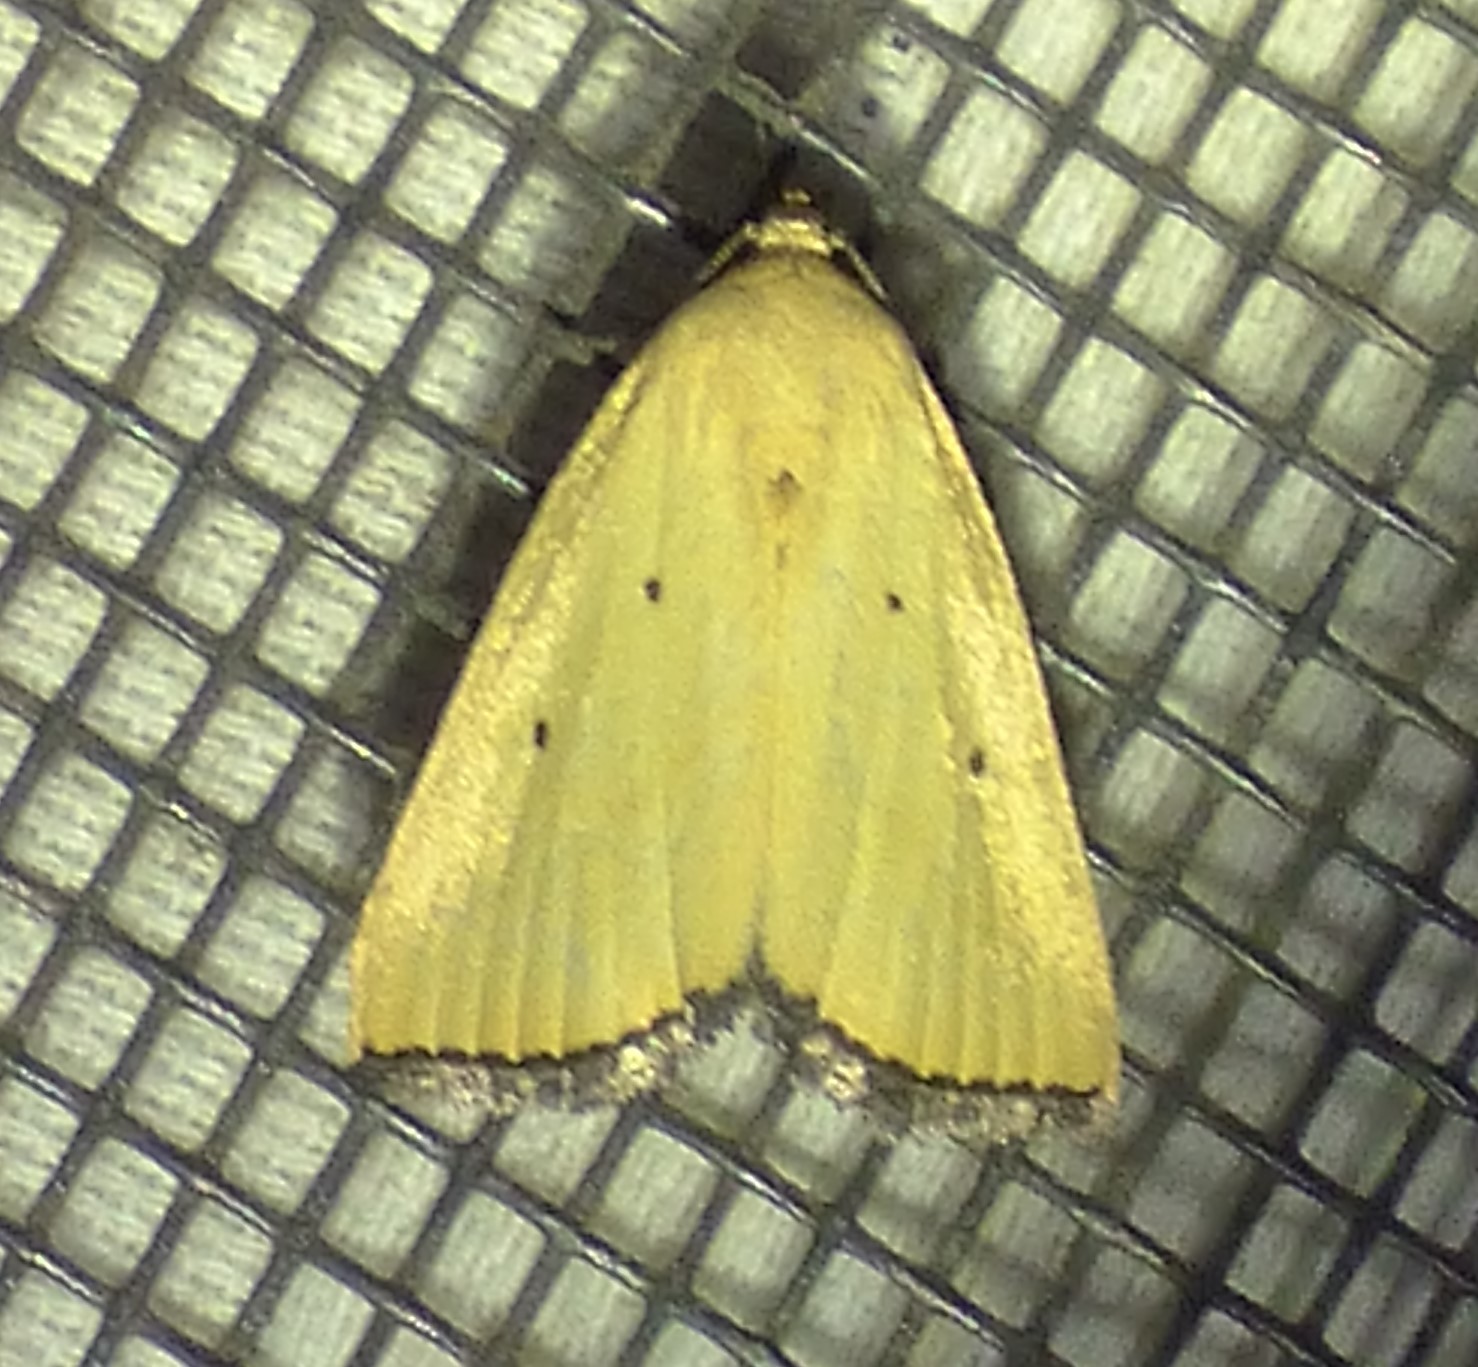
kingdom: Animalia
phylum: Arthropoda
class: Insecta
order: Lepidoptera
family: Noctuidae
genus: Marimatha
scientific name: Marimatha nigrofimbria
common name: Black-bordered lemon moth
